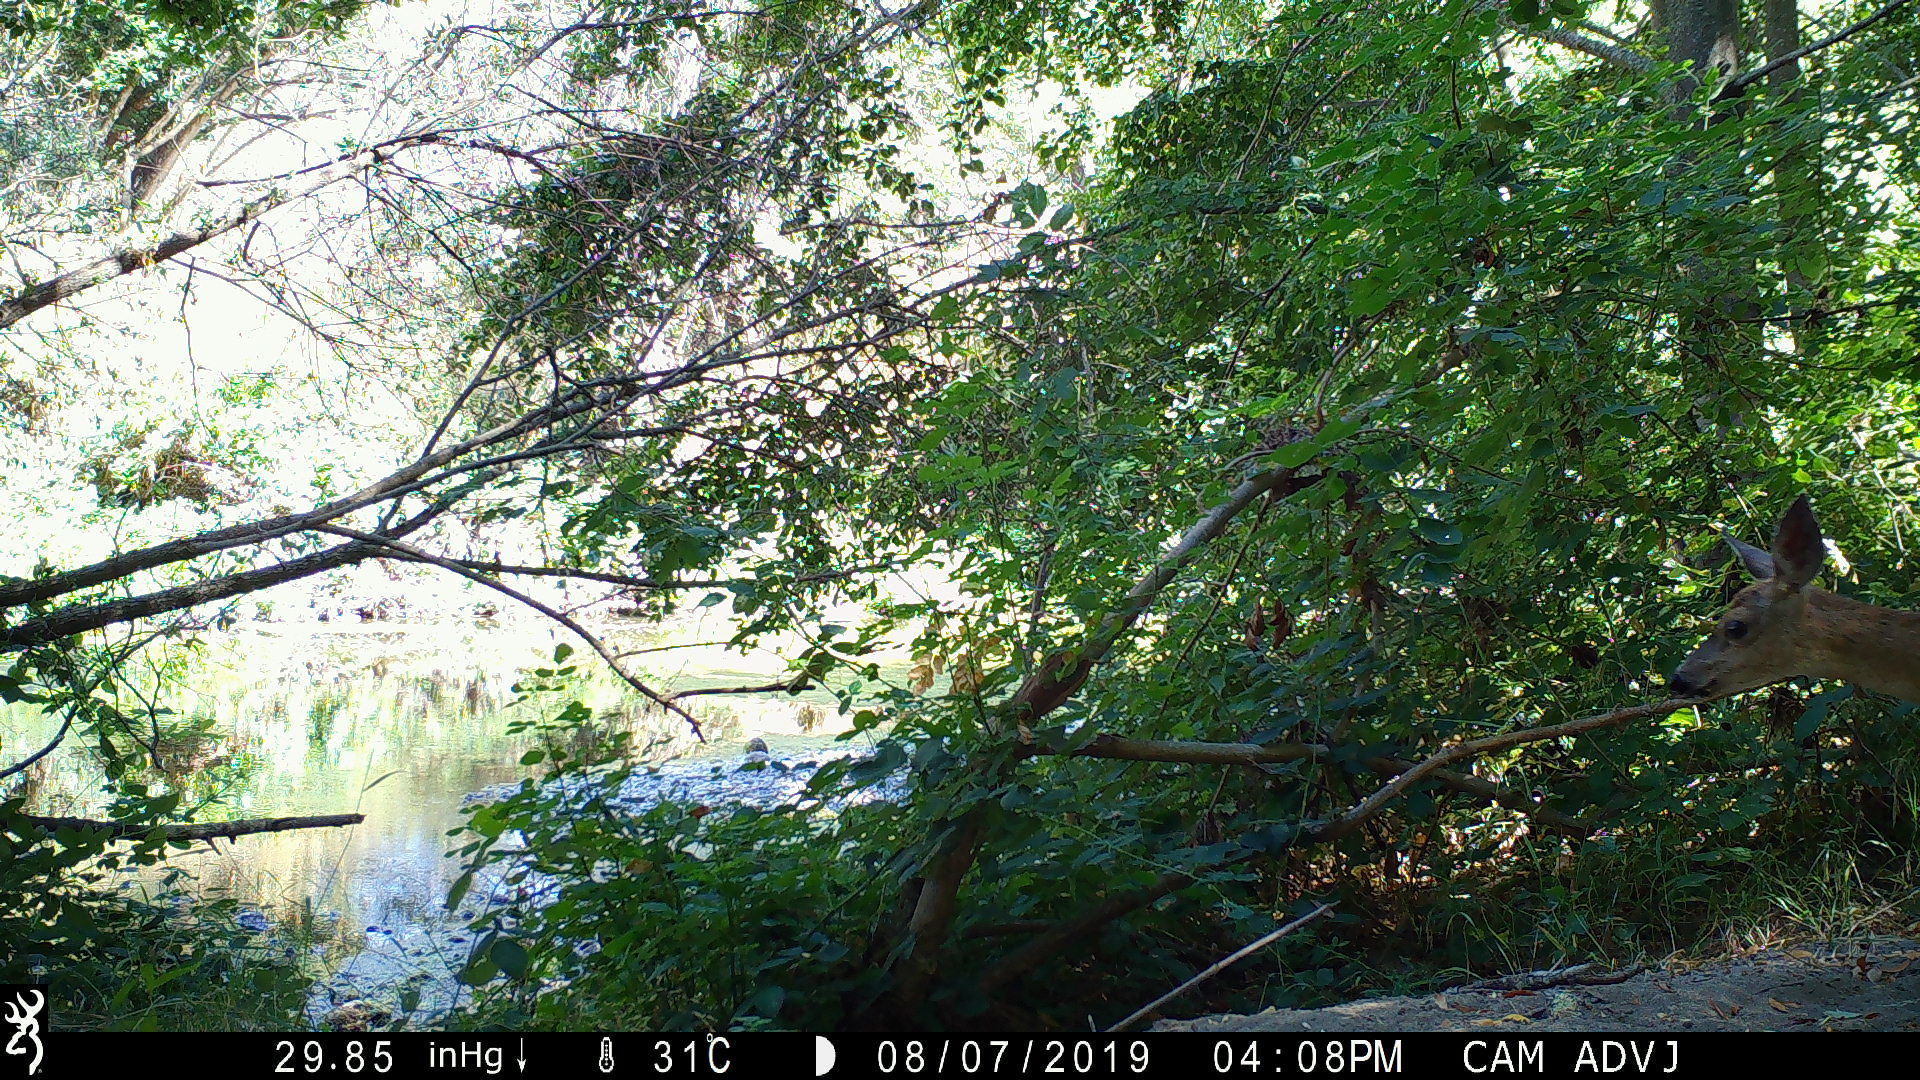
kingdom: Animalia
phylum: Chordata
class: Mammalia
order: Artiodactyla
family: Cervidae
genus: Odocoileus
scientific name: Odocoileus hemionus
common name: Mule deer
